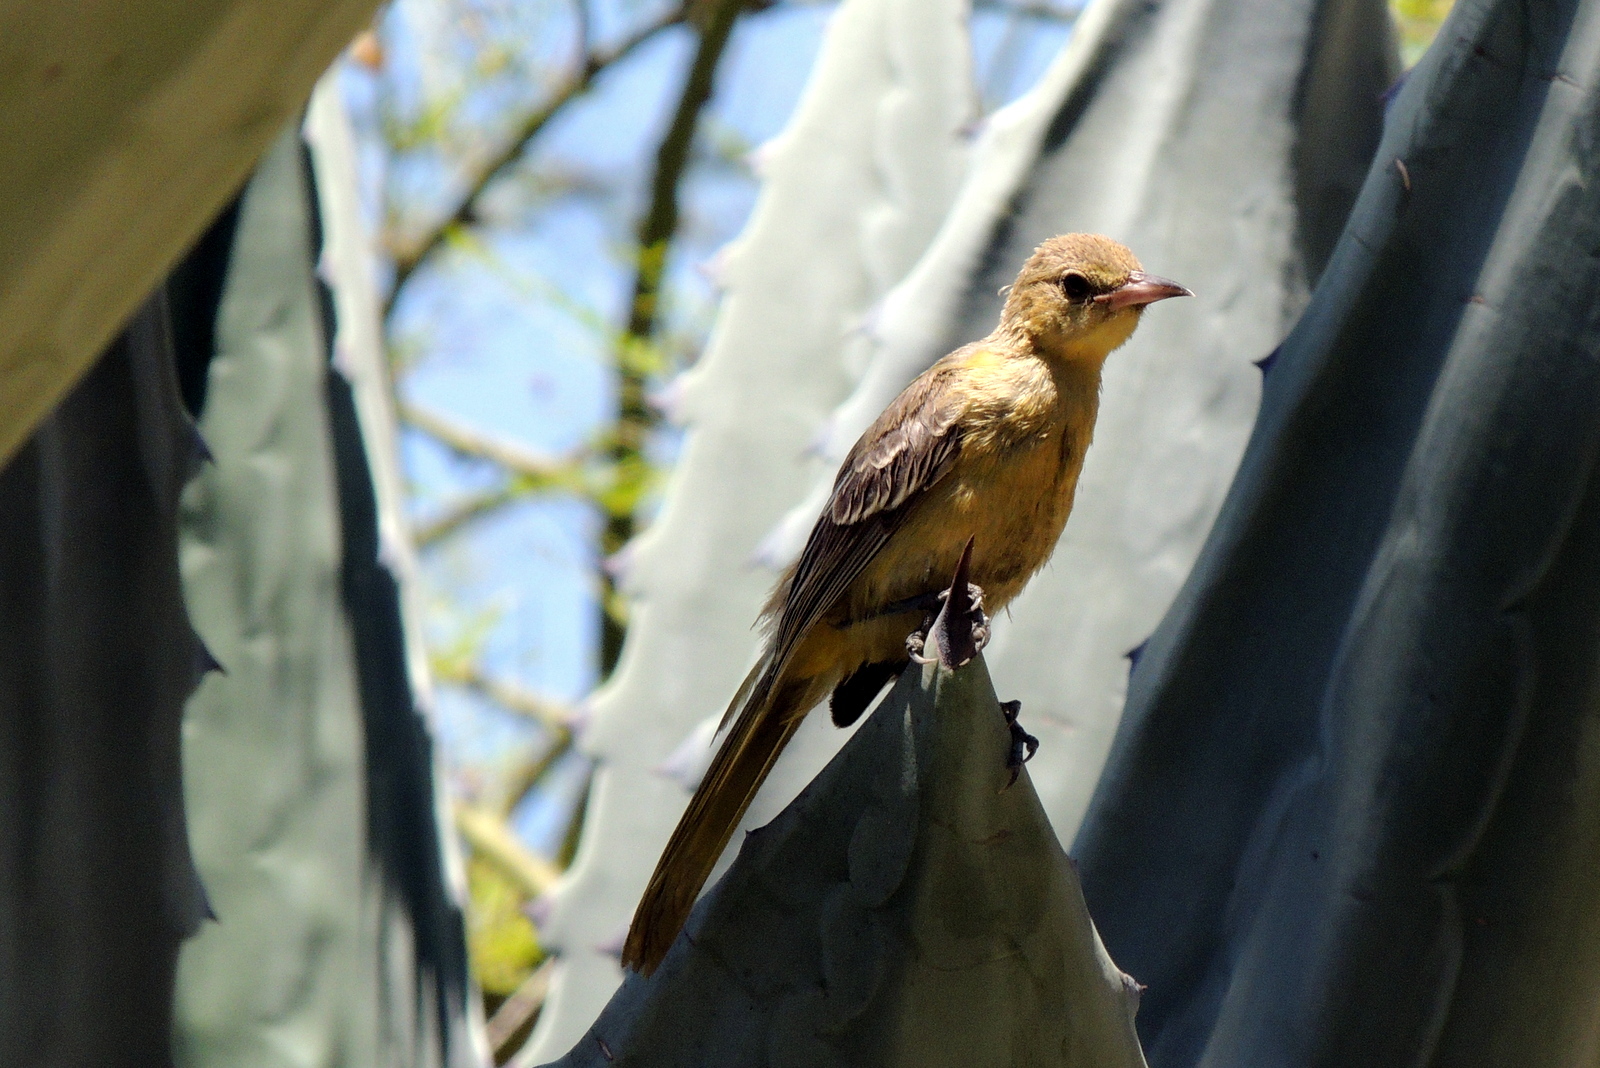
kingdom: Animalia
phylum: Chordata
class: Aves
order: Passeriformes
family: Icteridae
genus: Icterus
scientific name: Icterus cucullatus
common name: Hooded oriole
